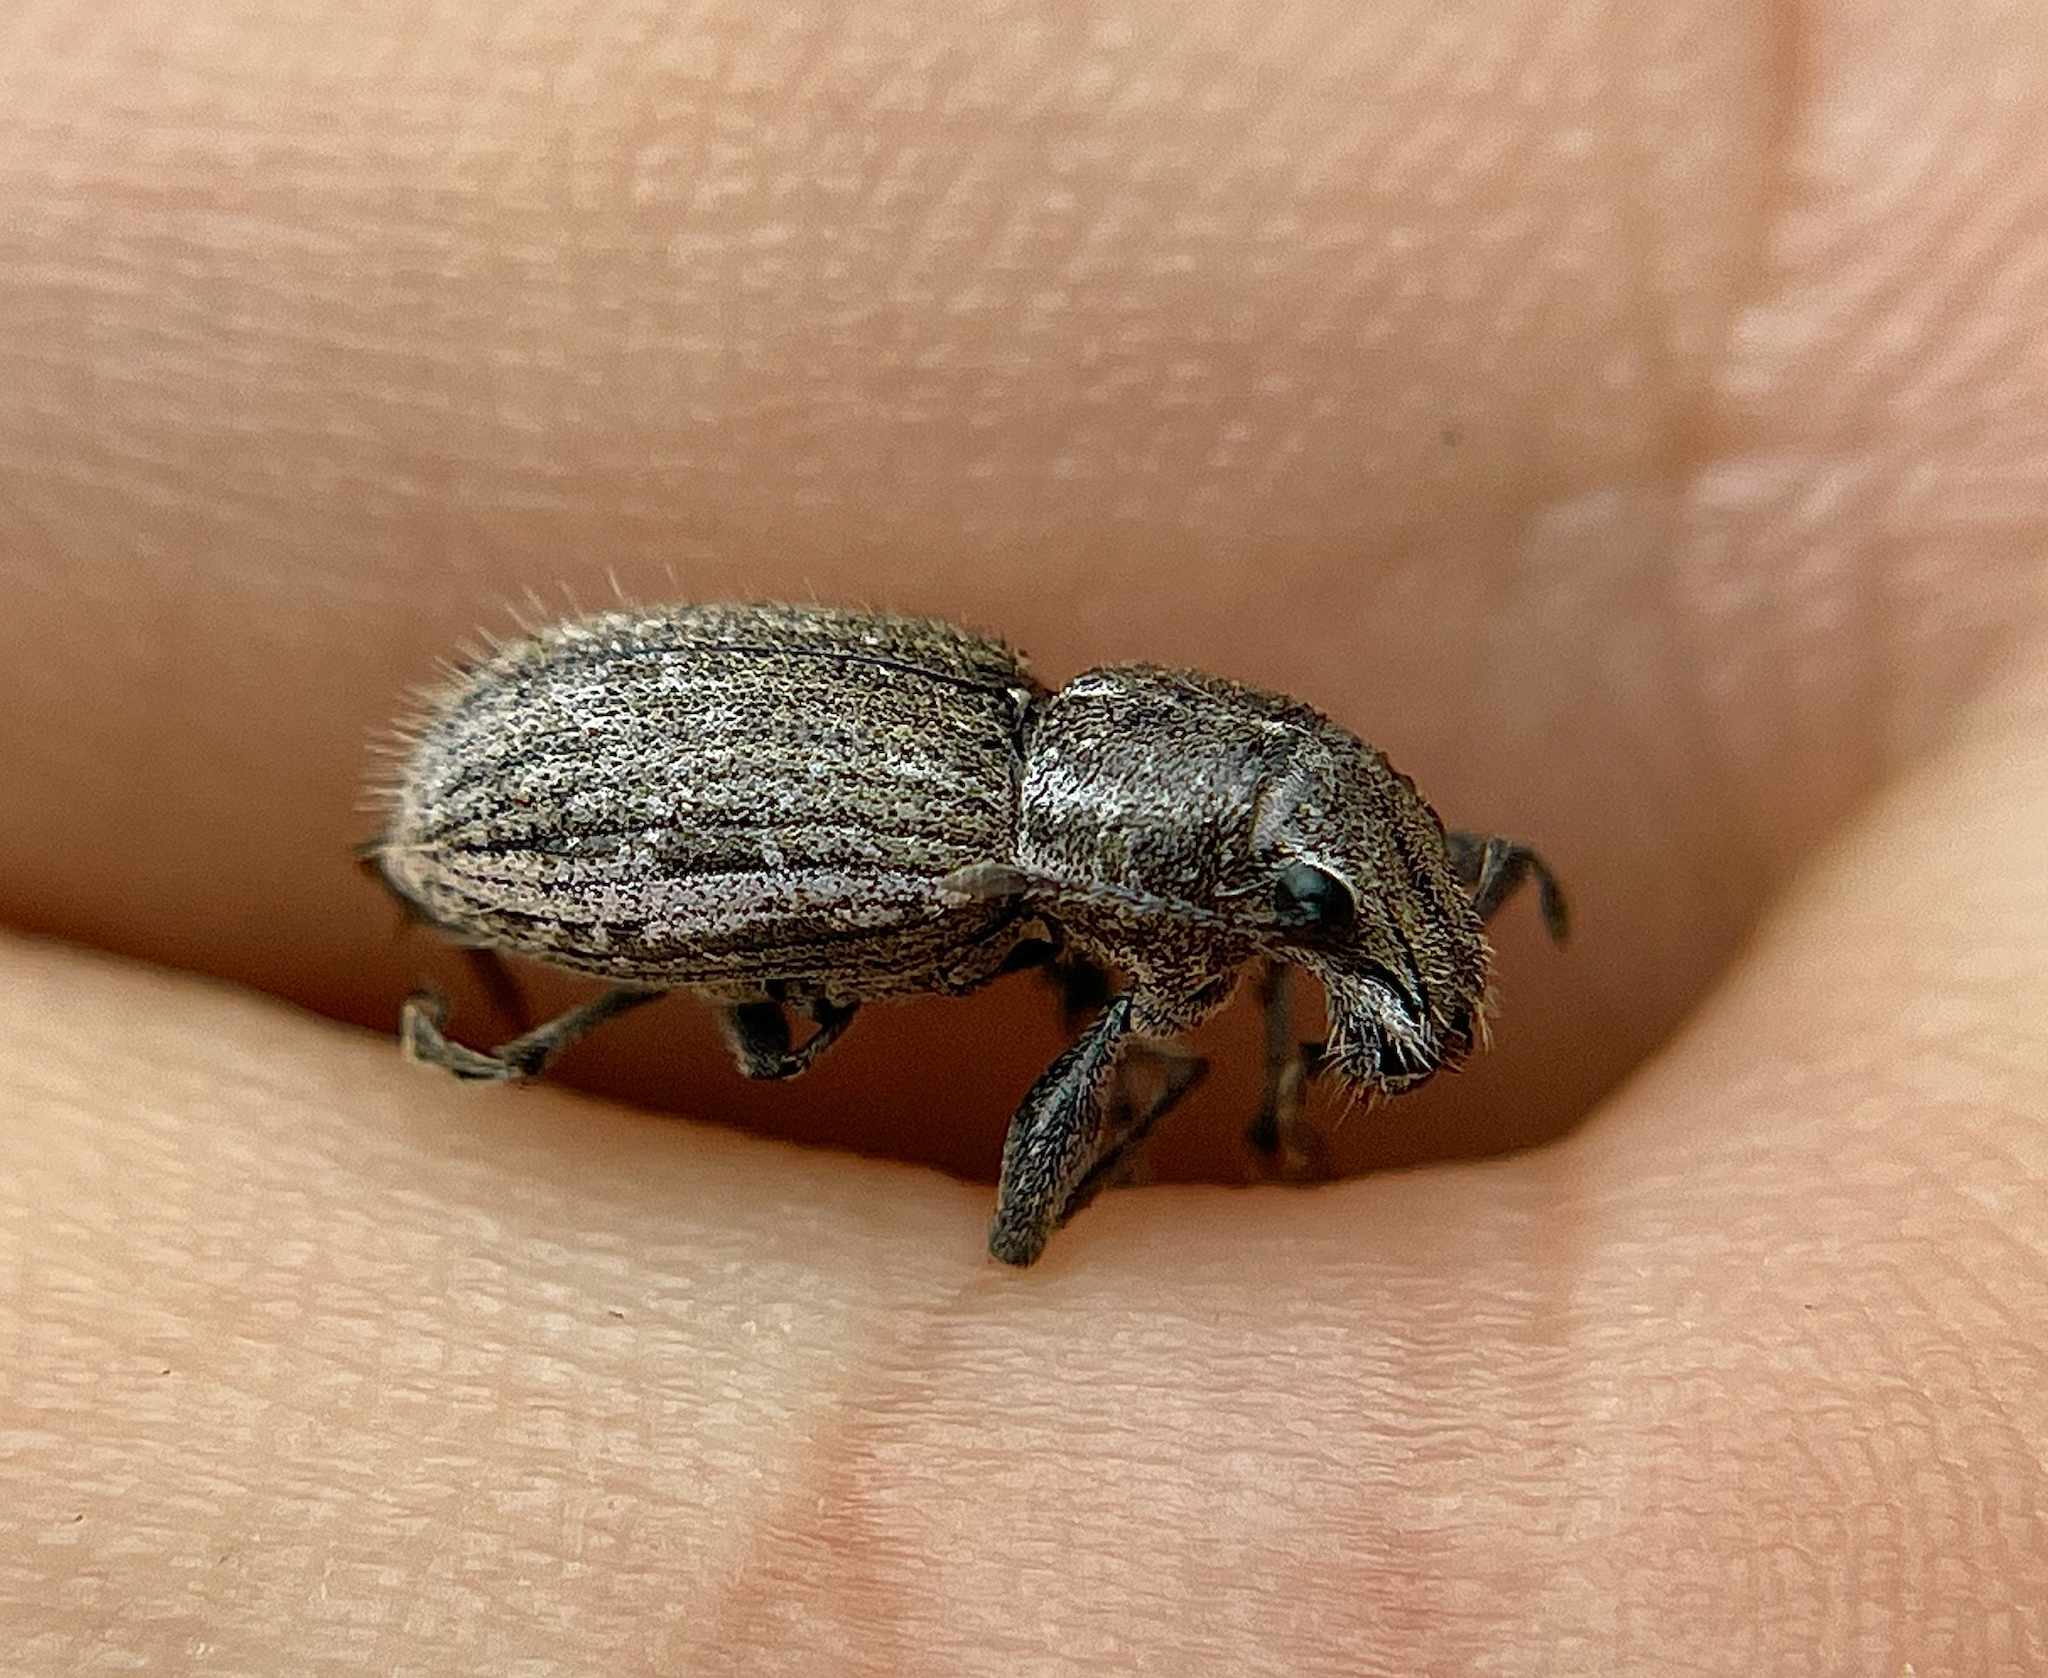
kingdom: Animalia
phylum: Arthropoda
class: Insecta
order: Coleoptera
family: Curculionidae
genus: Naupactus
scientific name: Naupactus leucoloma
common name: Whitefringed beetle
